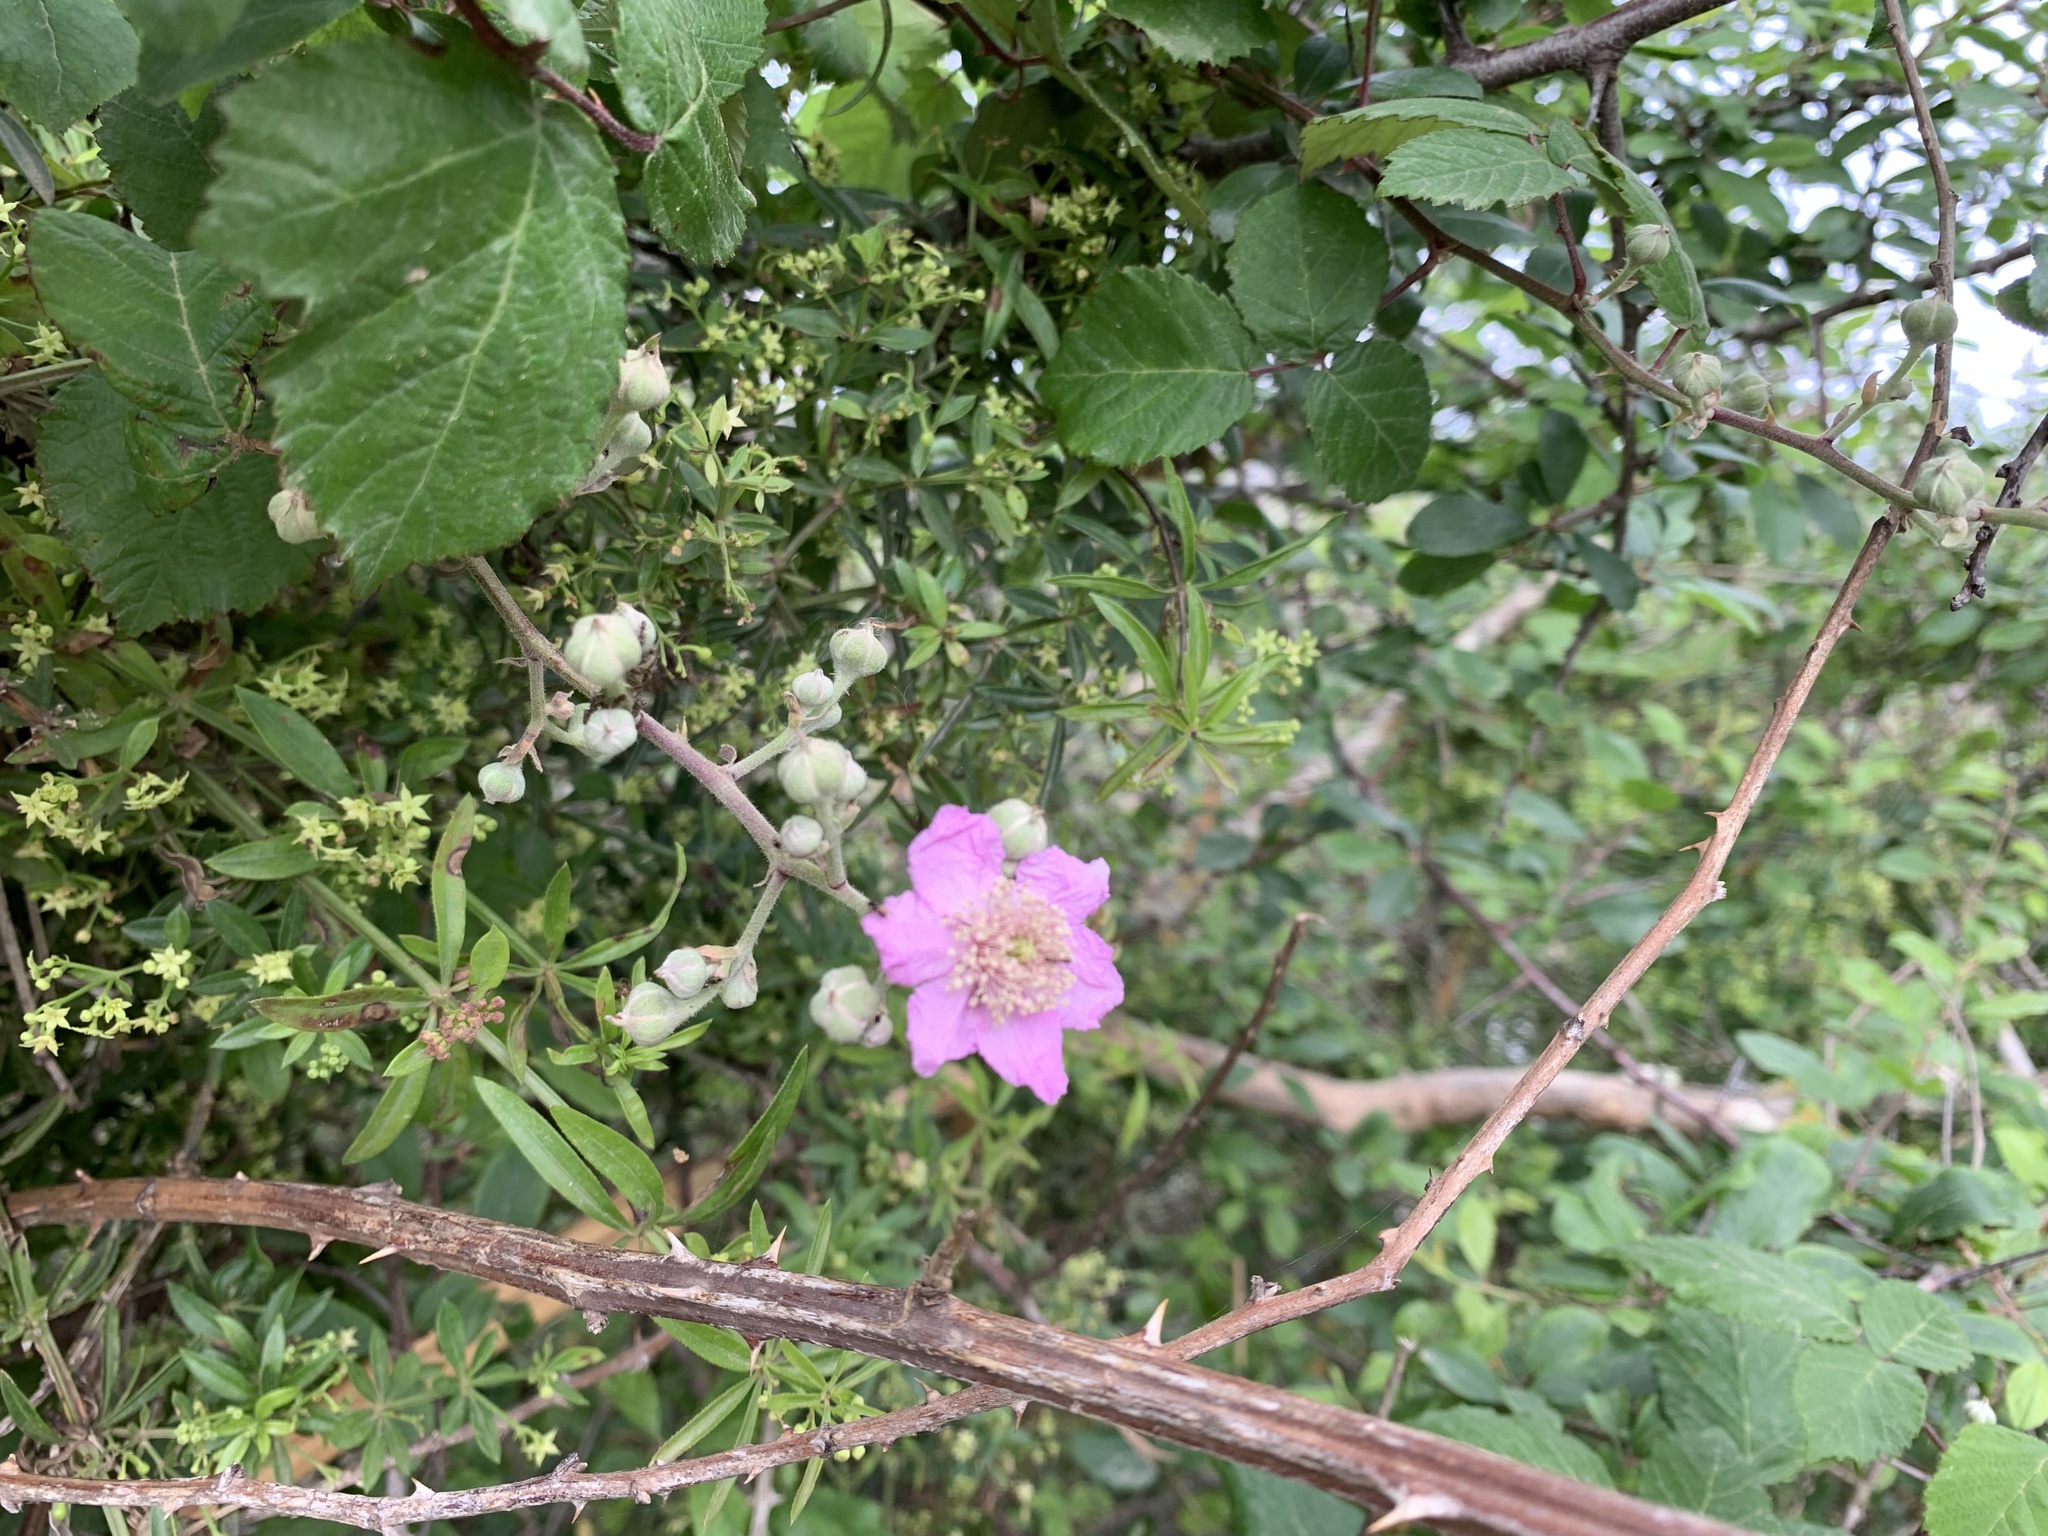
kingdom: Plantae
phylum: Tracheophyta
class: Magnoliopsida
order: Rosales
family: Rosaceae
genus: Rubus
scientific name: Rubus ulmifolius
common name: Elmleaf blackberry
